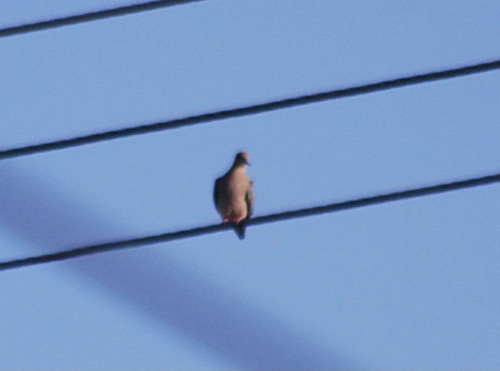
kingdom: Animalia
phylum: Chordata
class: Aves
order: Columbiformes
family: Columbidae
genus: Zenaida
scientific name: Zenaida macroura
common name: Mourning dove
